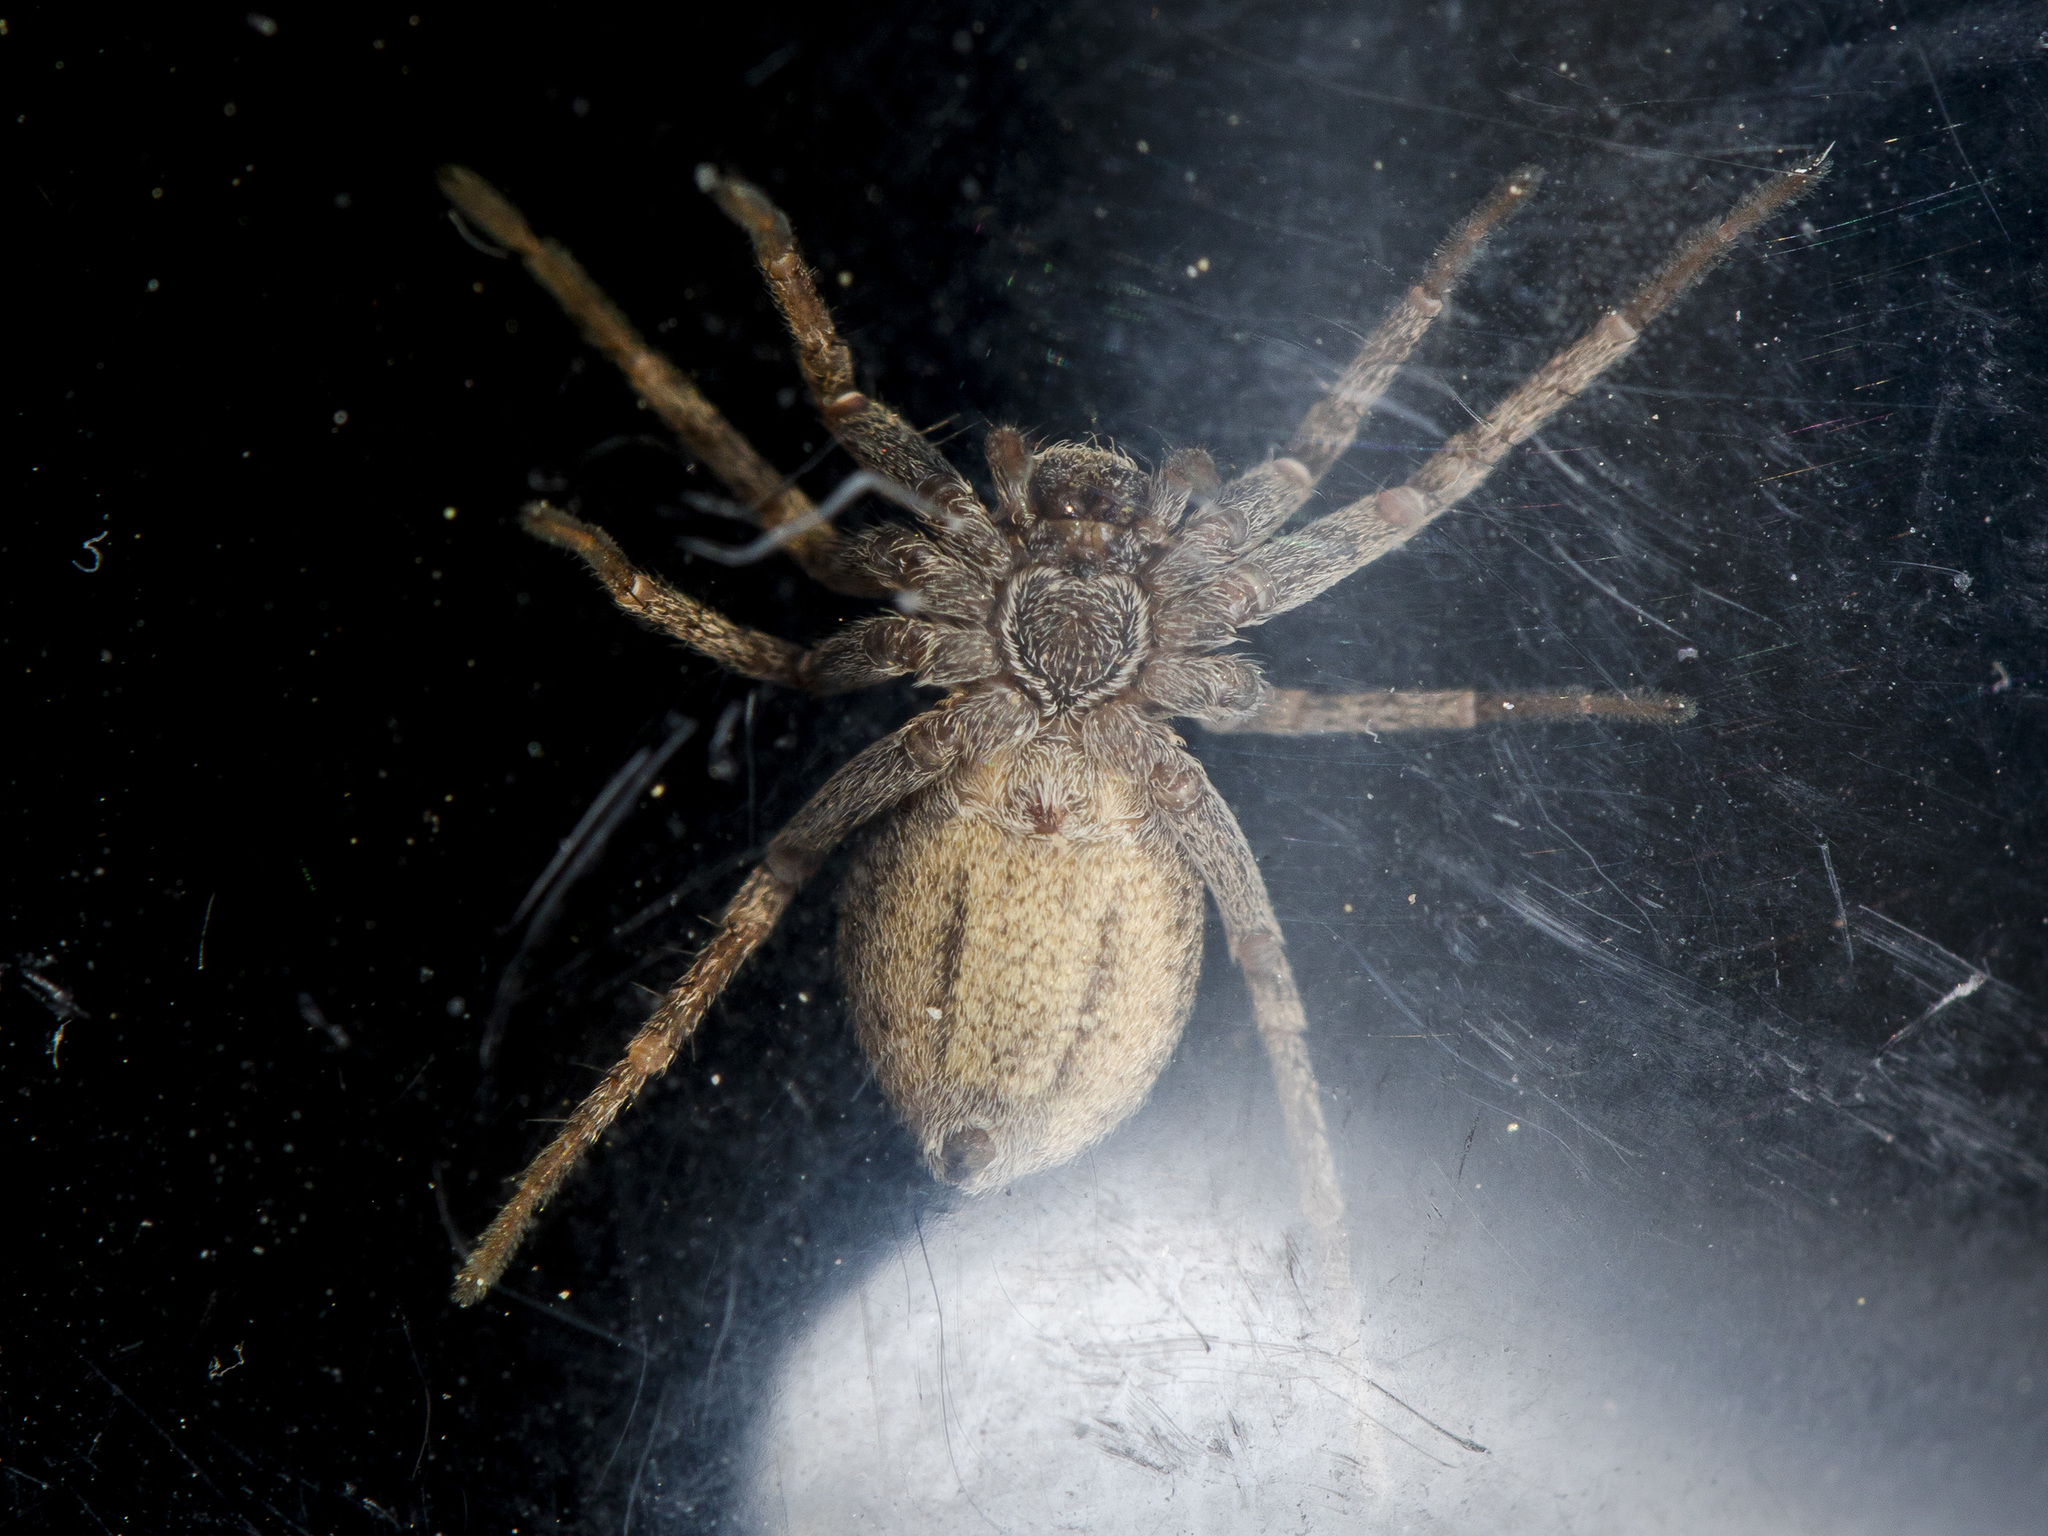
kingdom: Animalia
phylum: Arthropoda
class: Arachnida
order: Araneae
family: Philodromidae
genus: Thanatus
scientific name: Thanatus mikhailovi
